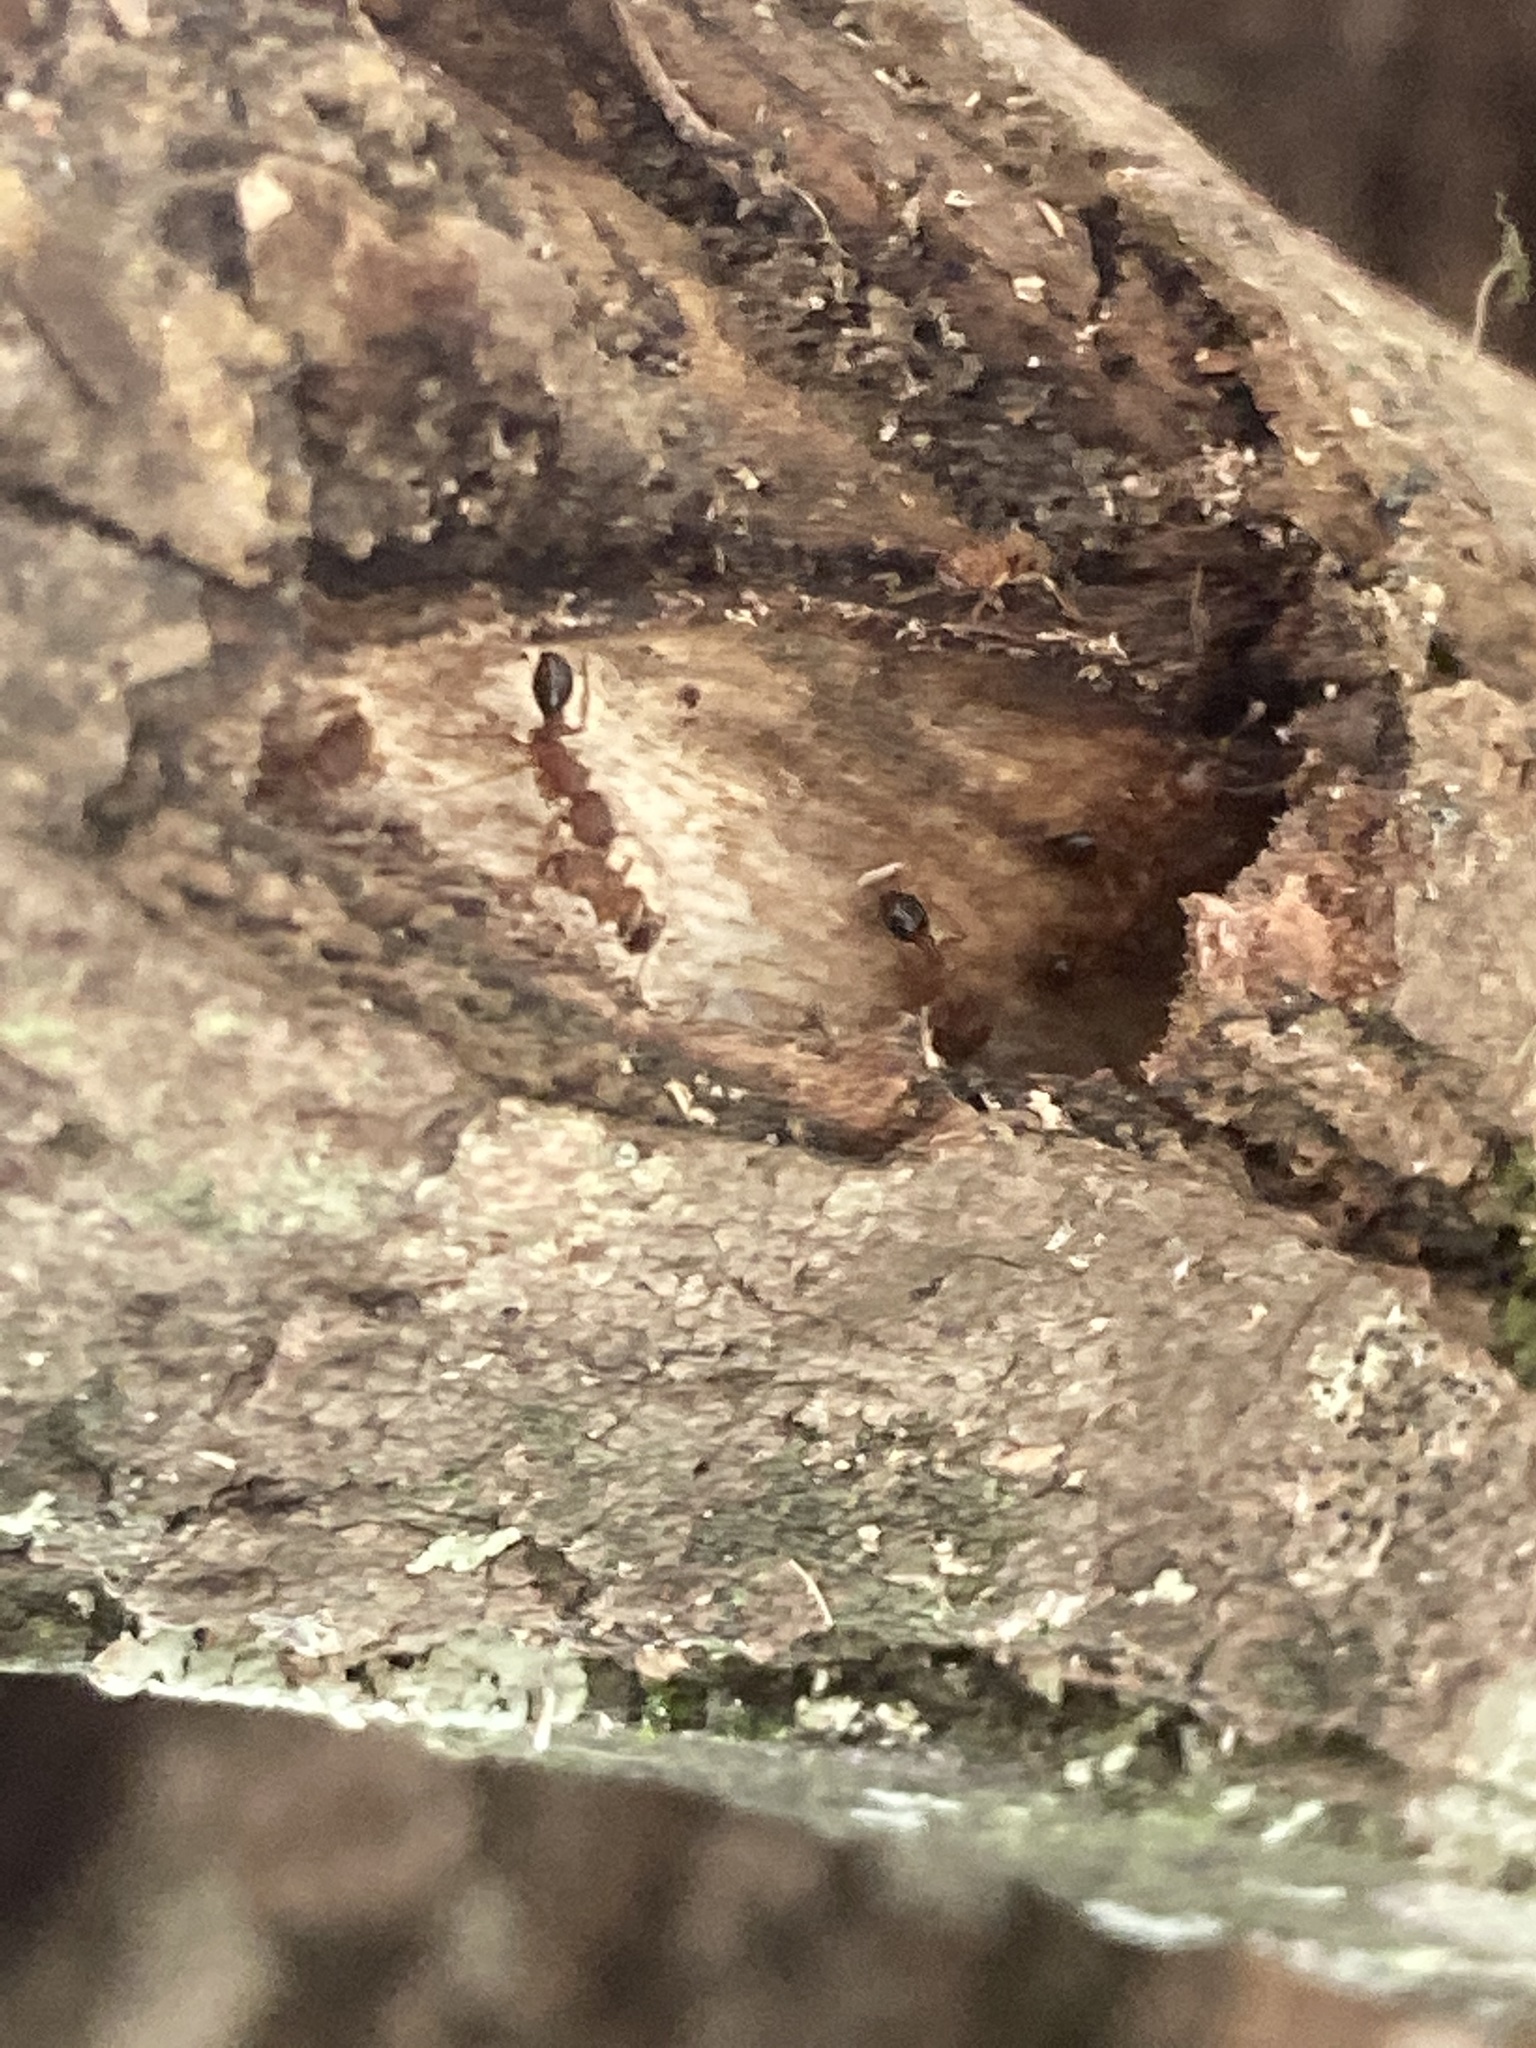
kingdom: Animalia
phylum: Arthropoda
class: Insecta
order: Hymenoptera
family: Formicidae
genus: Tetramorium
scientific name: Tetramorium bicarinatum
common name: Guinea ant
